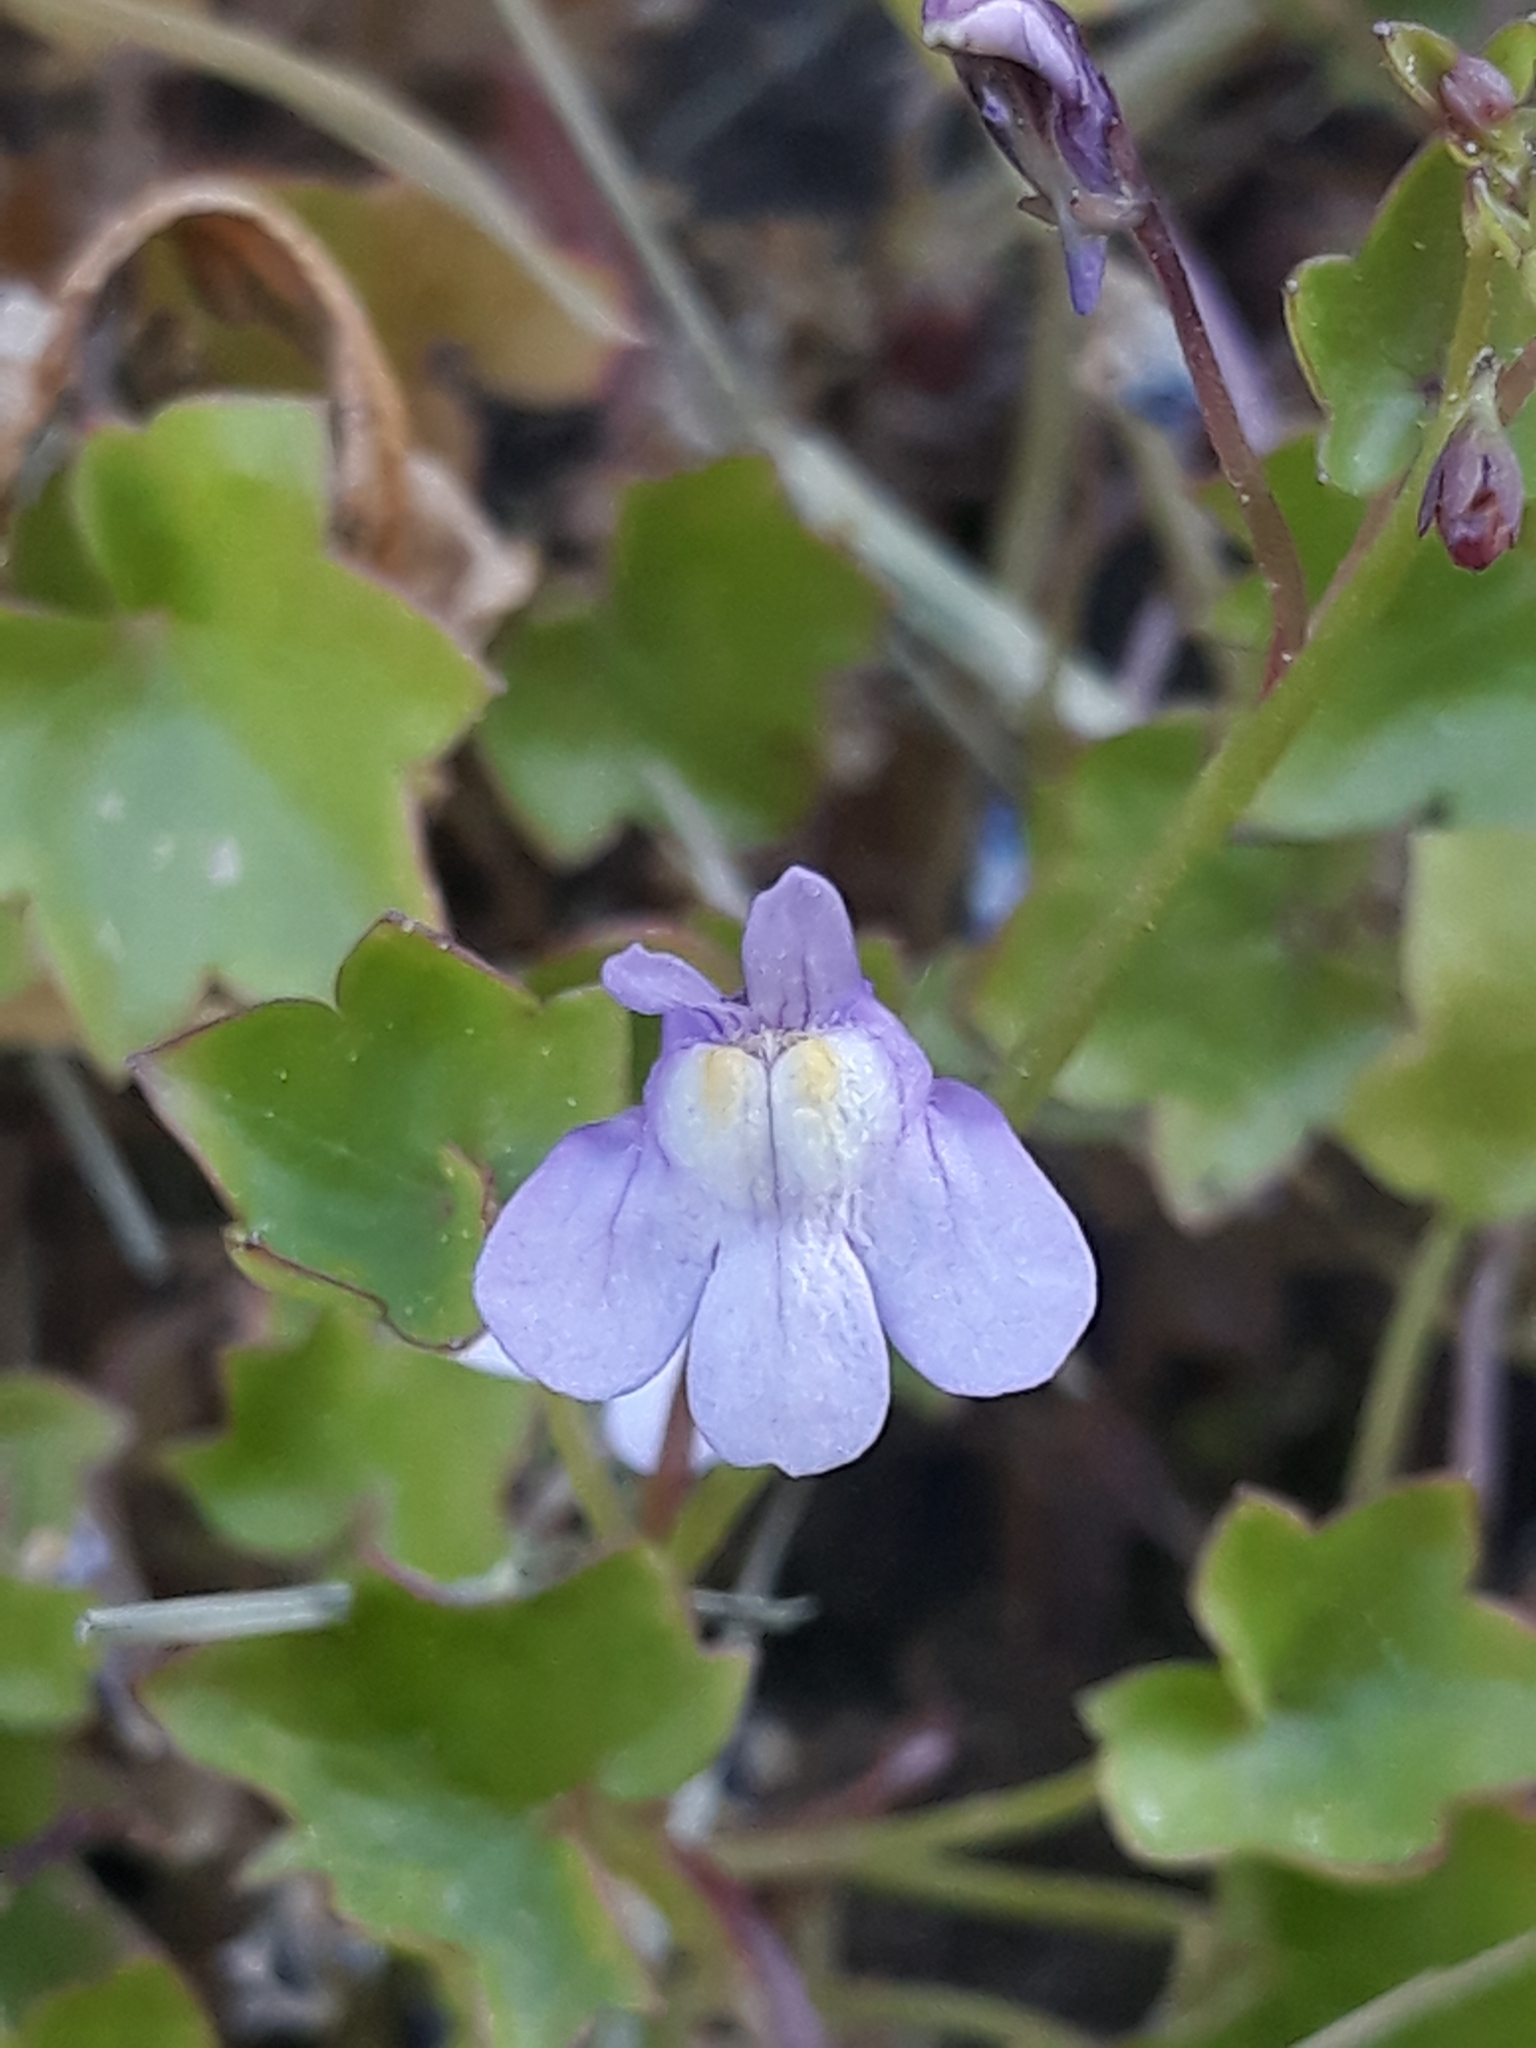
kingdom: Plantae
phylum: Tracheophyta
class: Magnoliopsida
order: Lamiales
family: Plantaginaceae
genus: Cymbalaria
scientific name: Cymbalaria muralis
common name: Ivy-leaved toadflax
